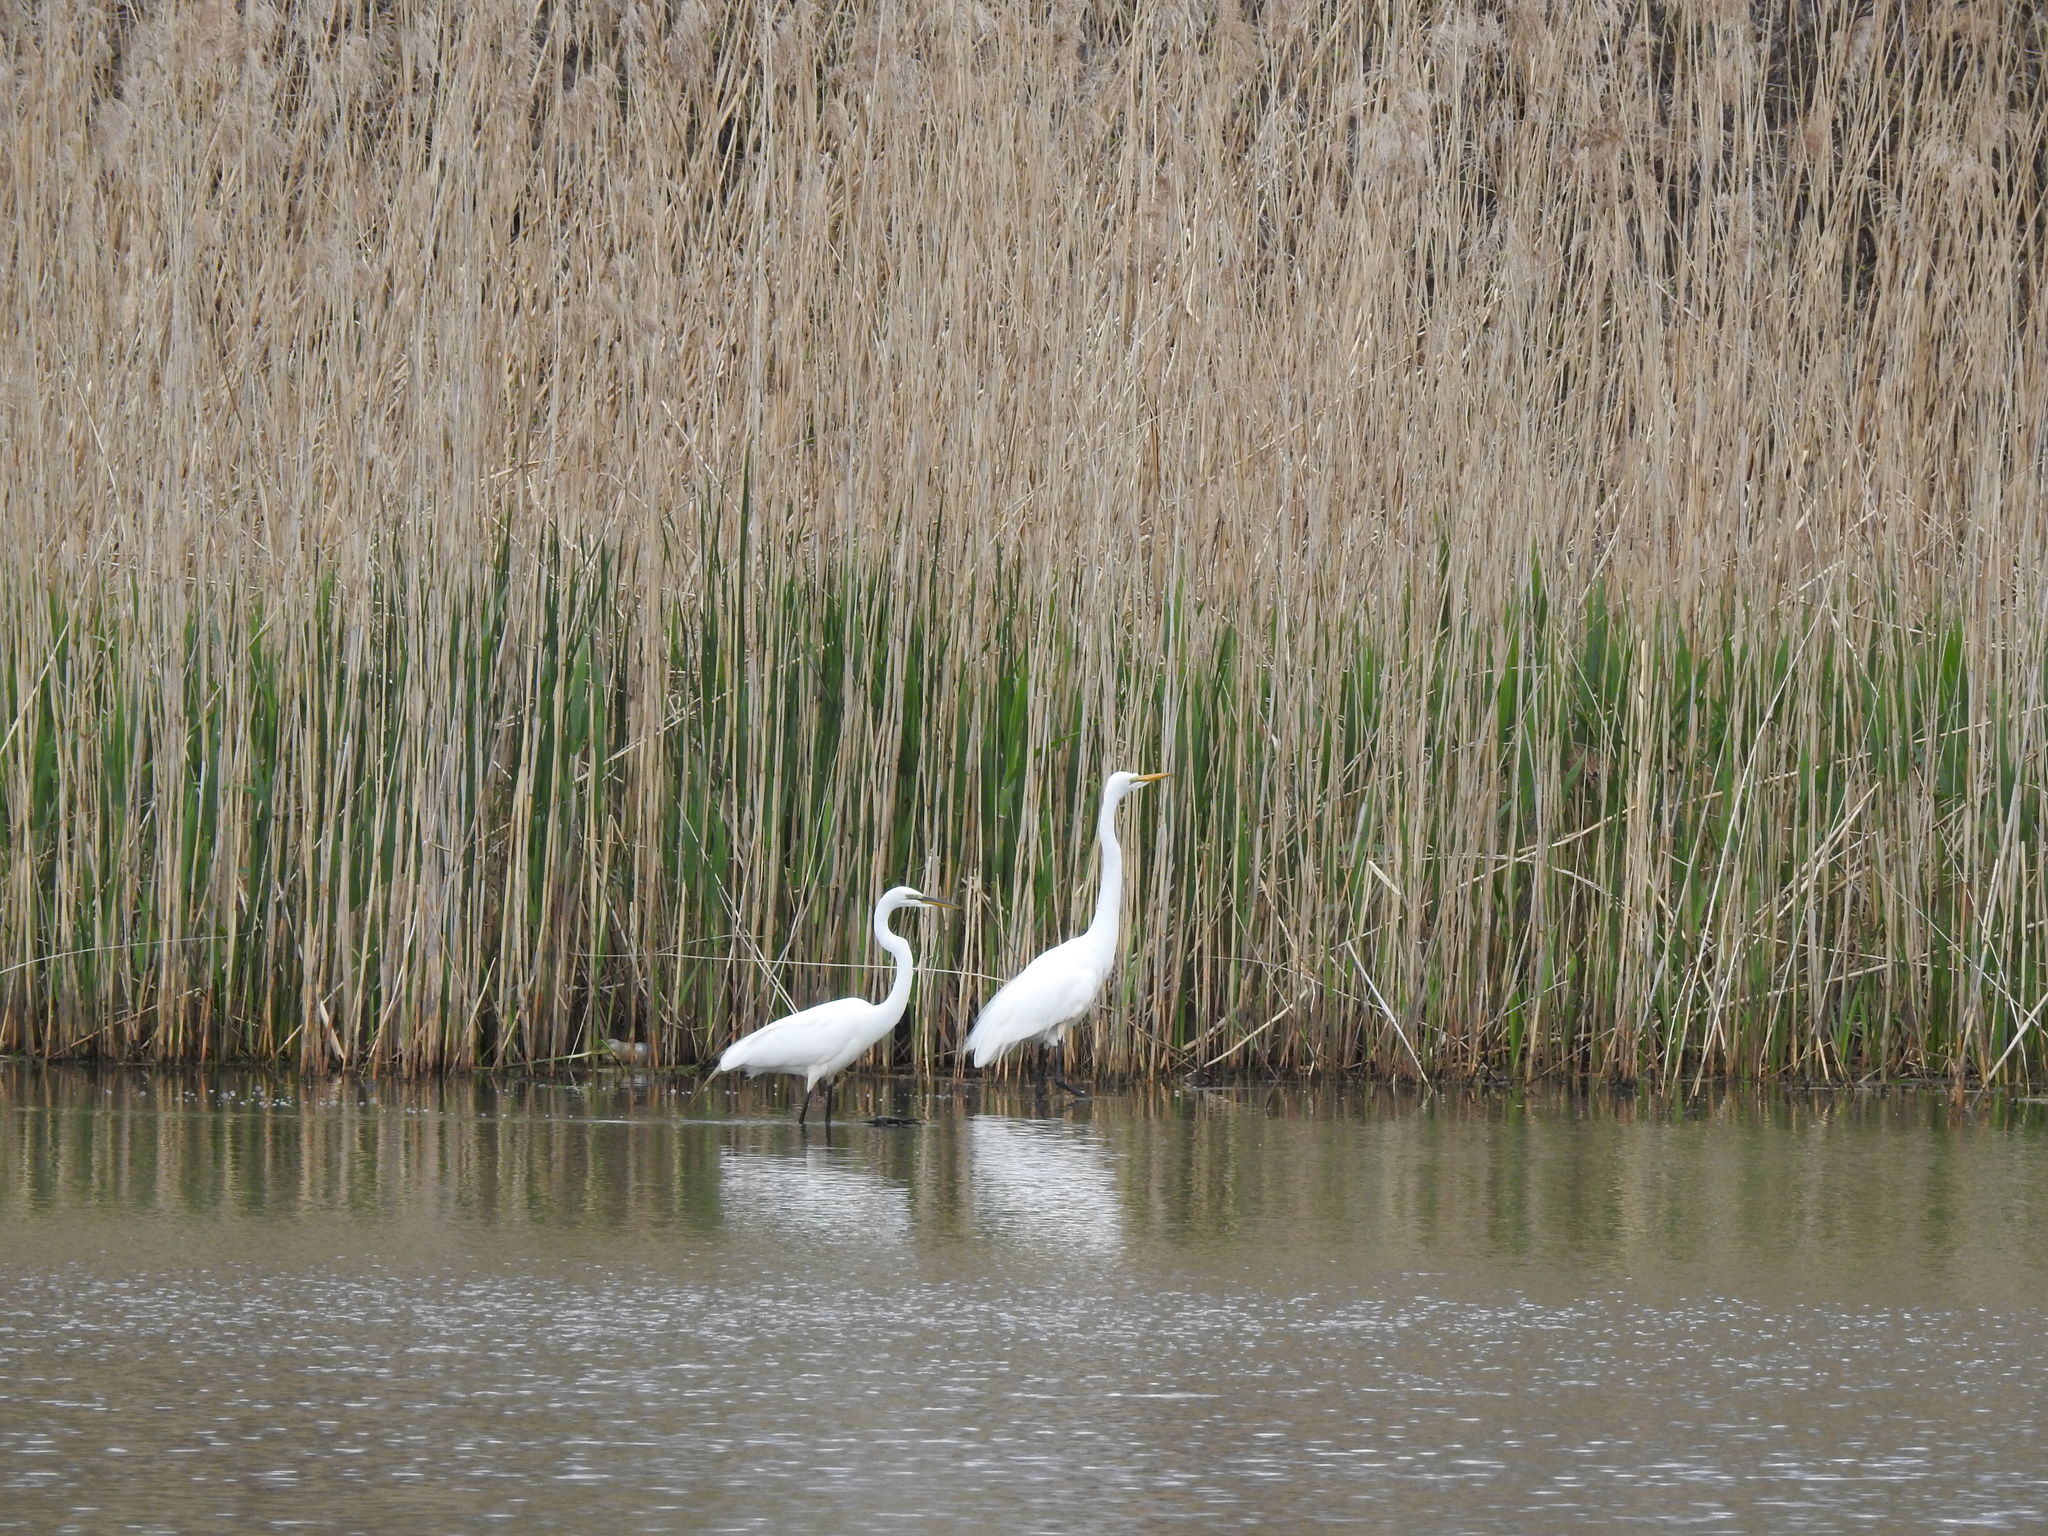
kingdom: Animalia
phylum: Chordata
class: Aves
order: Pelecaniformes
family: Ardeidae
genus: Ardea
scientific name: Ardea alba
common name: Great egret
